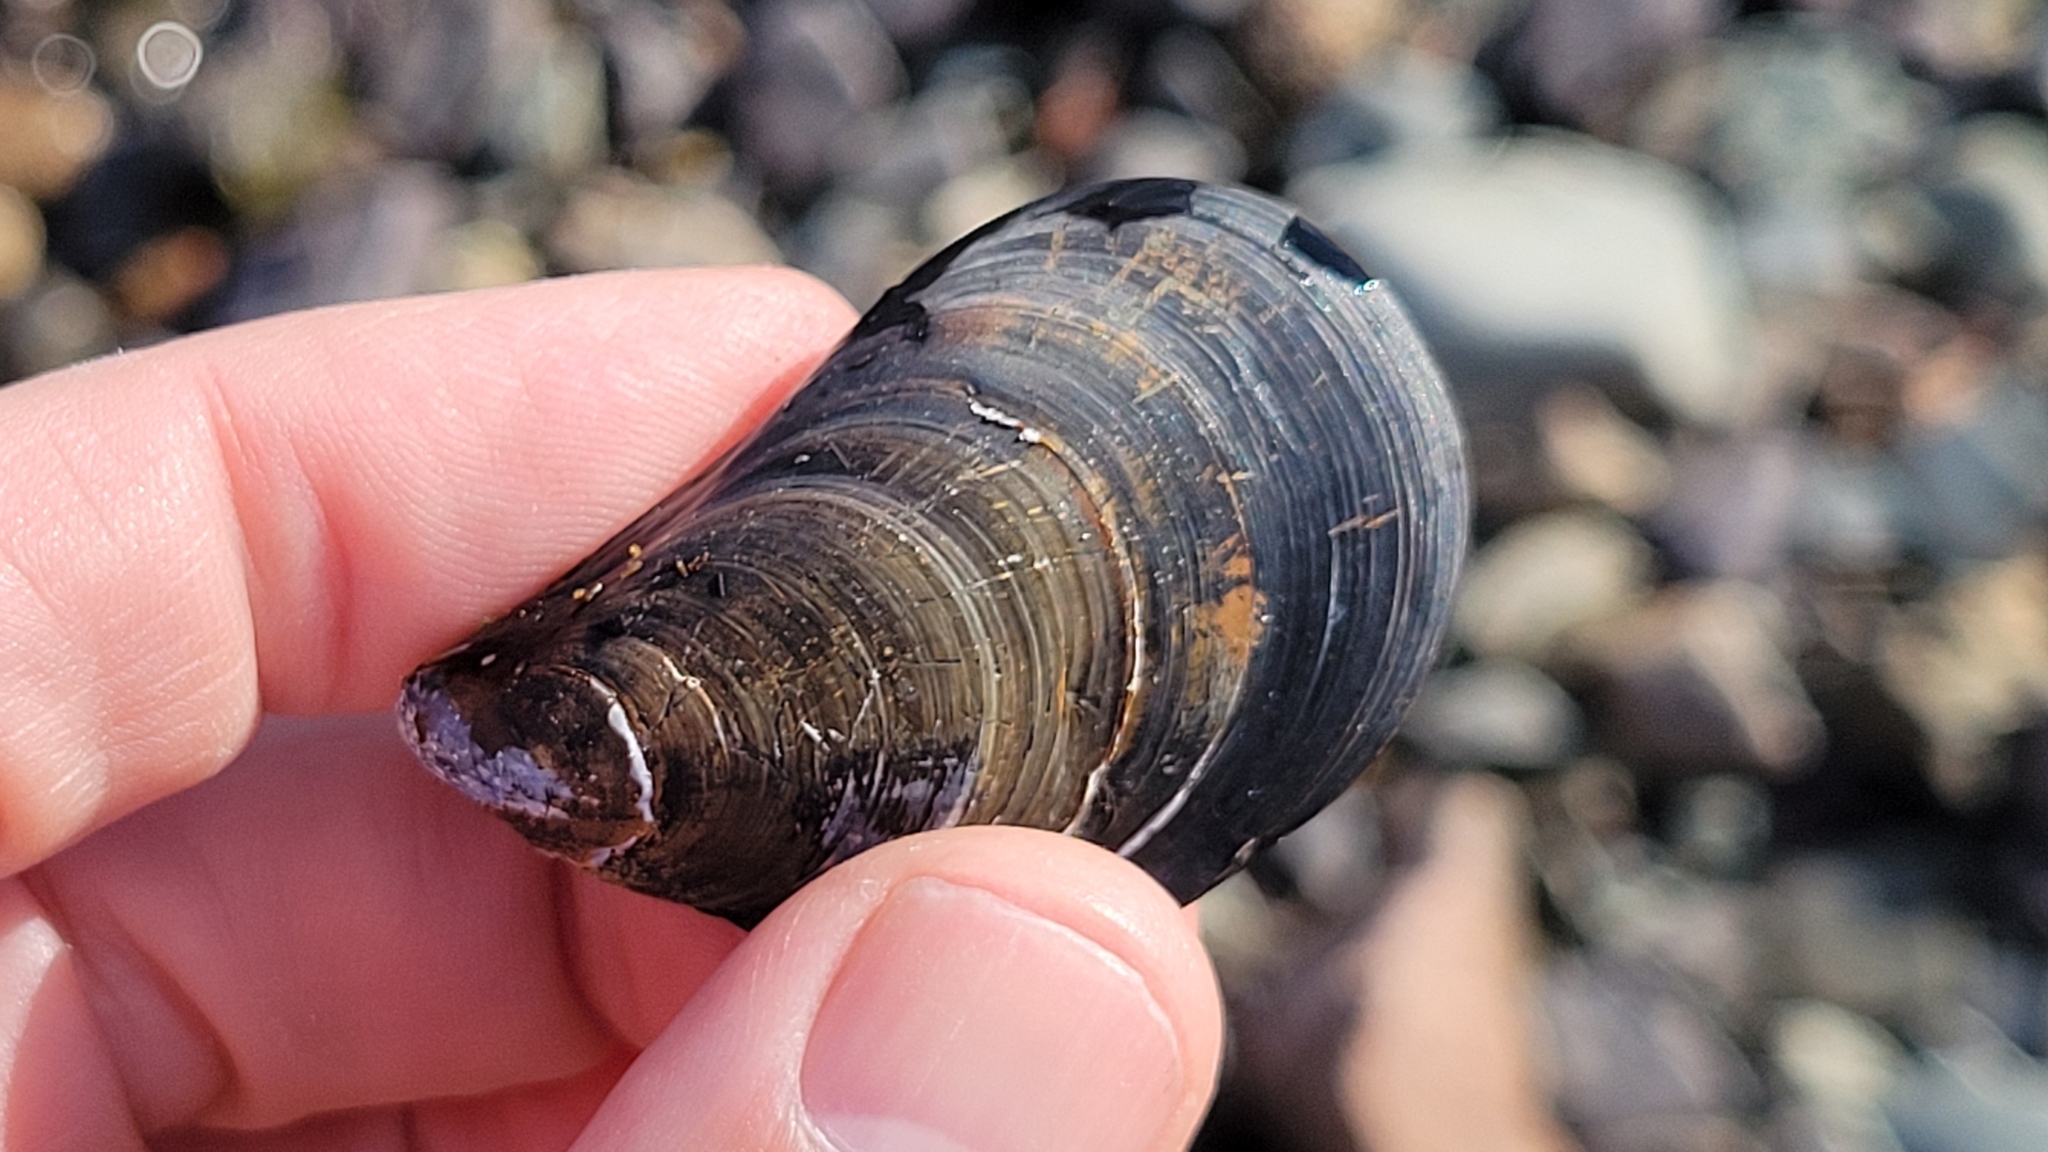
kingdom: Animalia
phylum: Mollusca
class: Bivalvia
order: Mytilida
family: Mytilidae
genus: Mytilus
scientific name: Mytilus edulis
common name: Blue mussel
